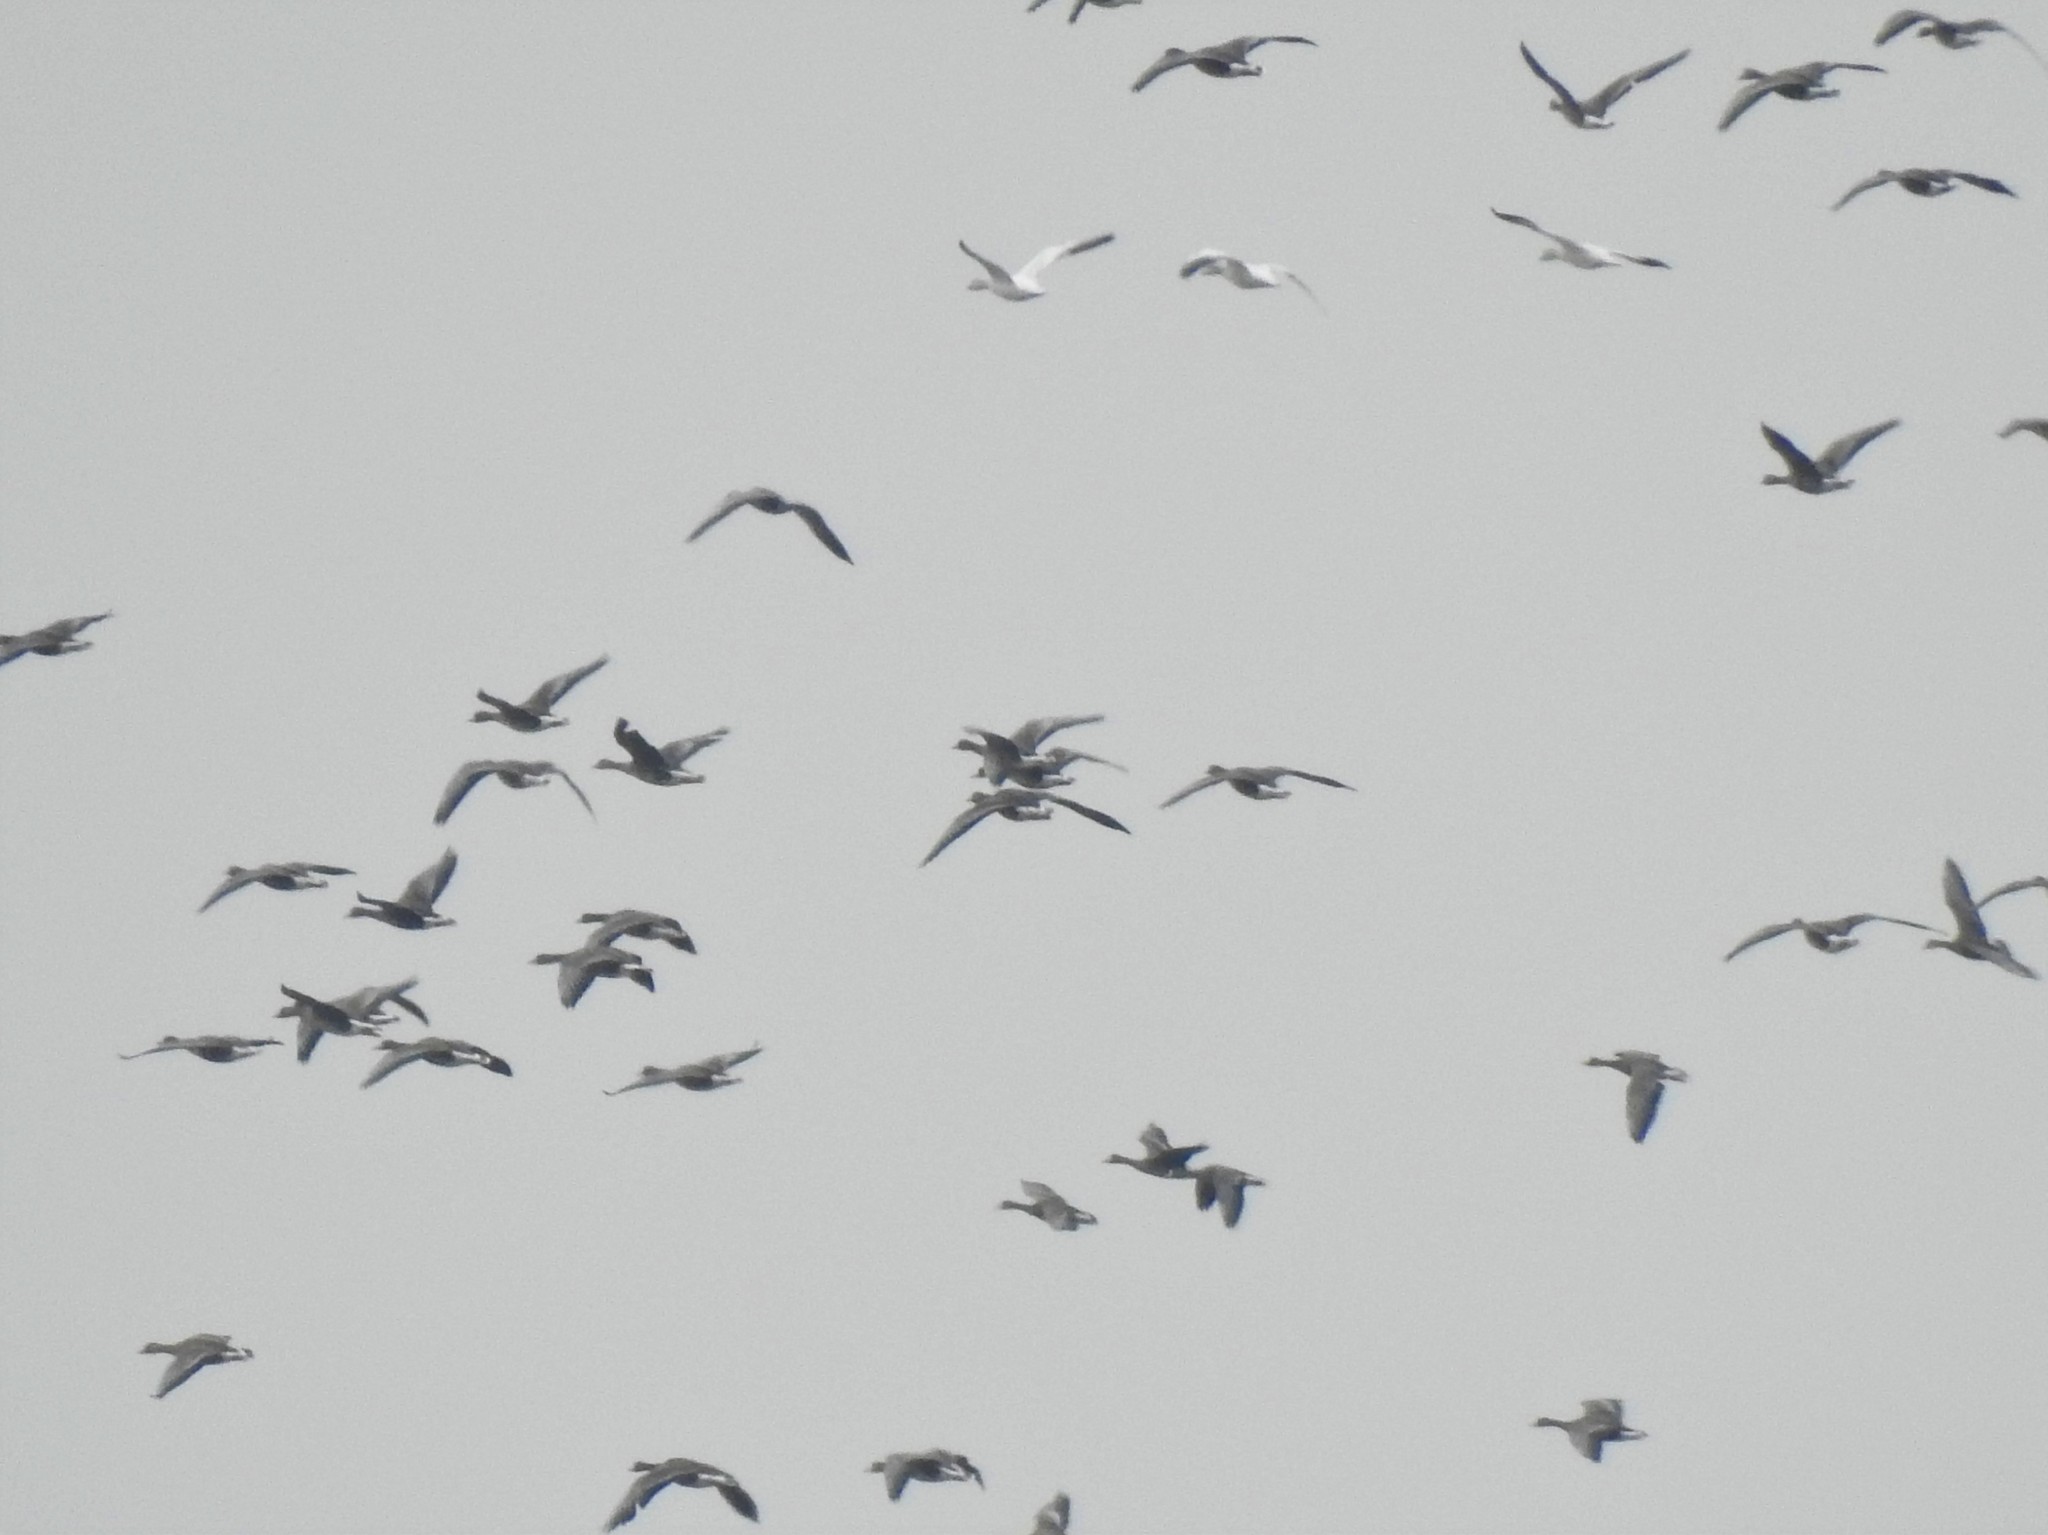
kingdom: Animalia
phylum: Chordata
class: Aves
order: Anseriformes
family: Anatidae
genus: Anser
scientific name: Anser caerulescens
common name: Snow goose
